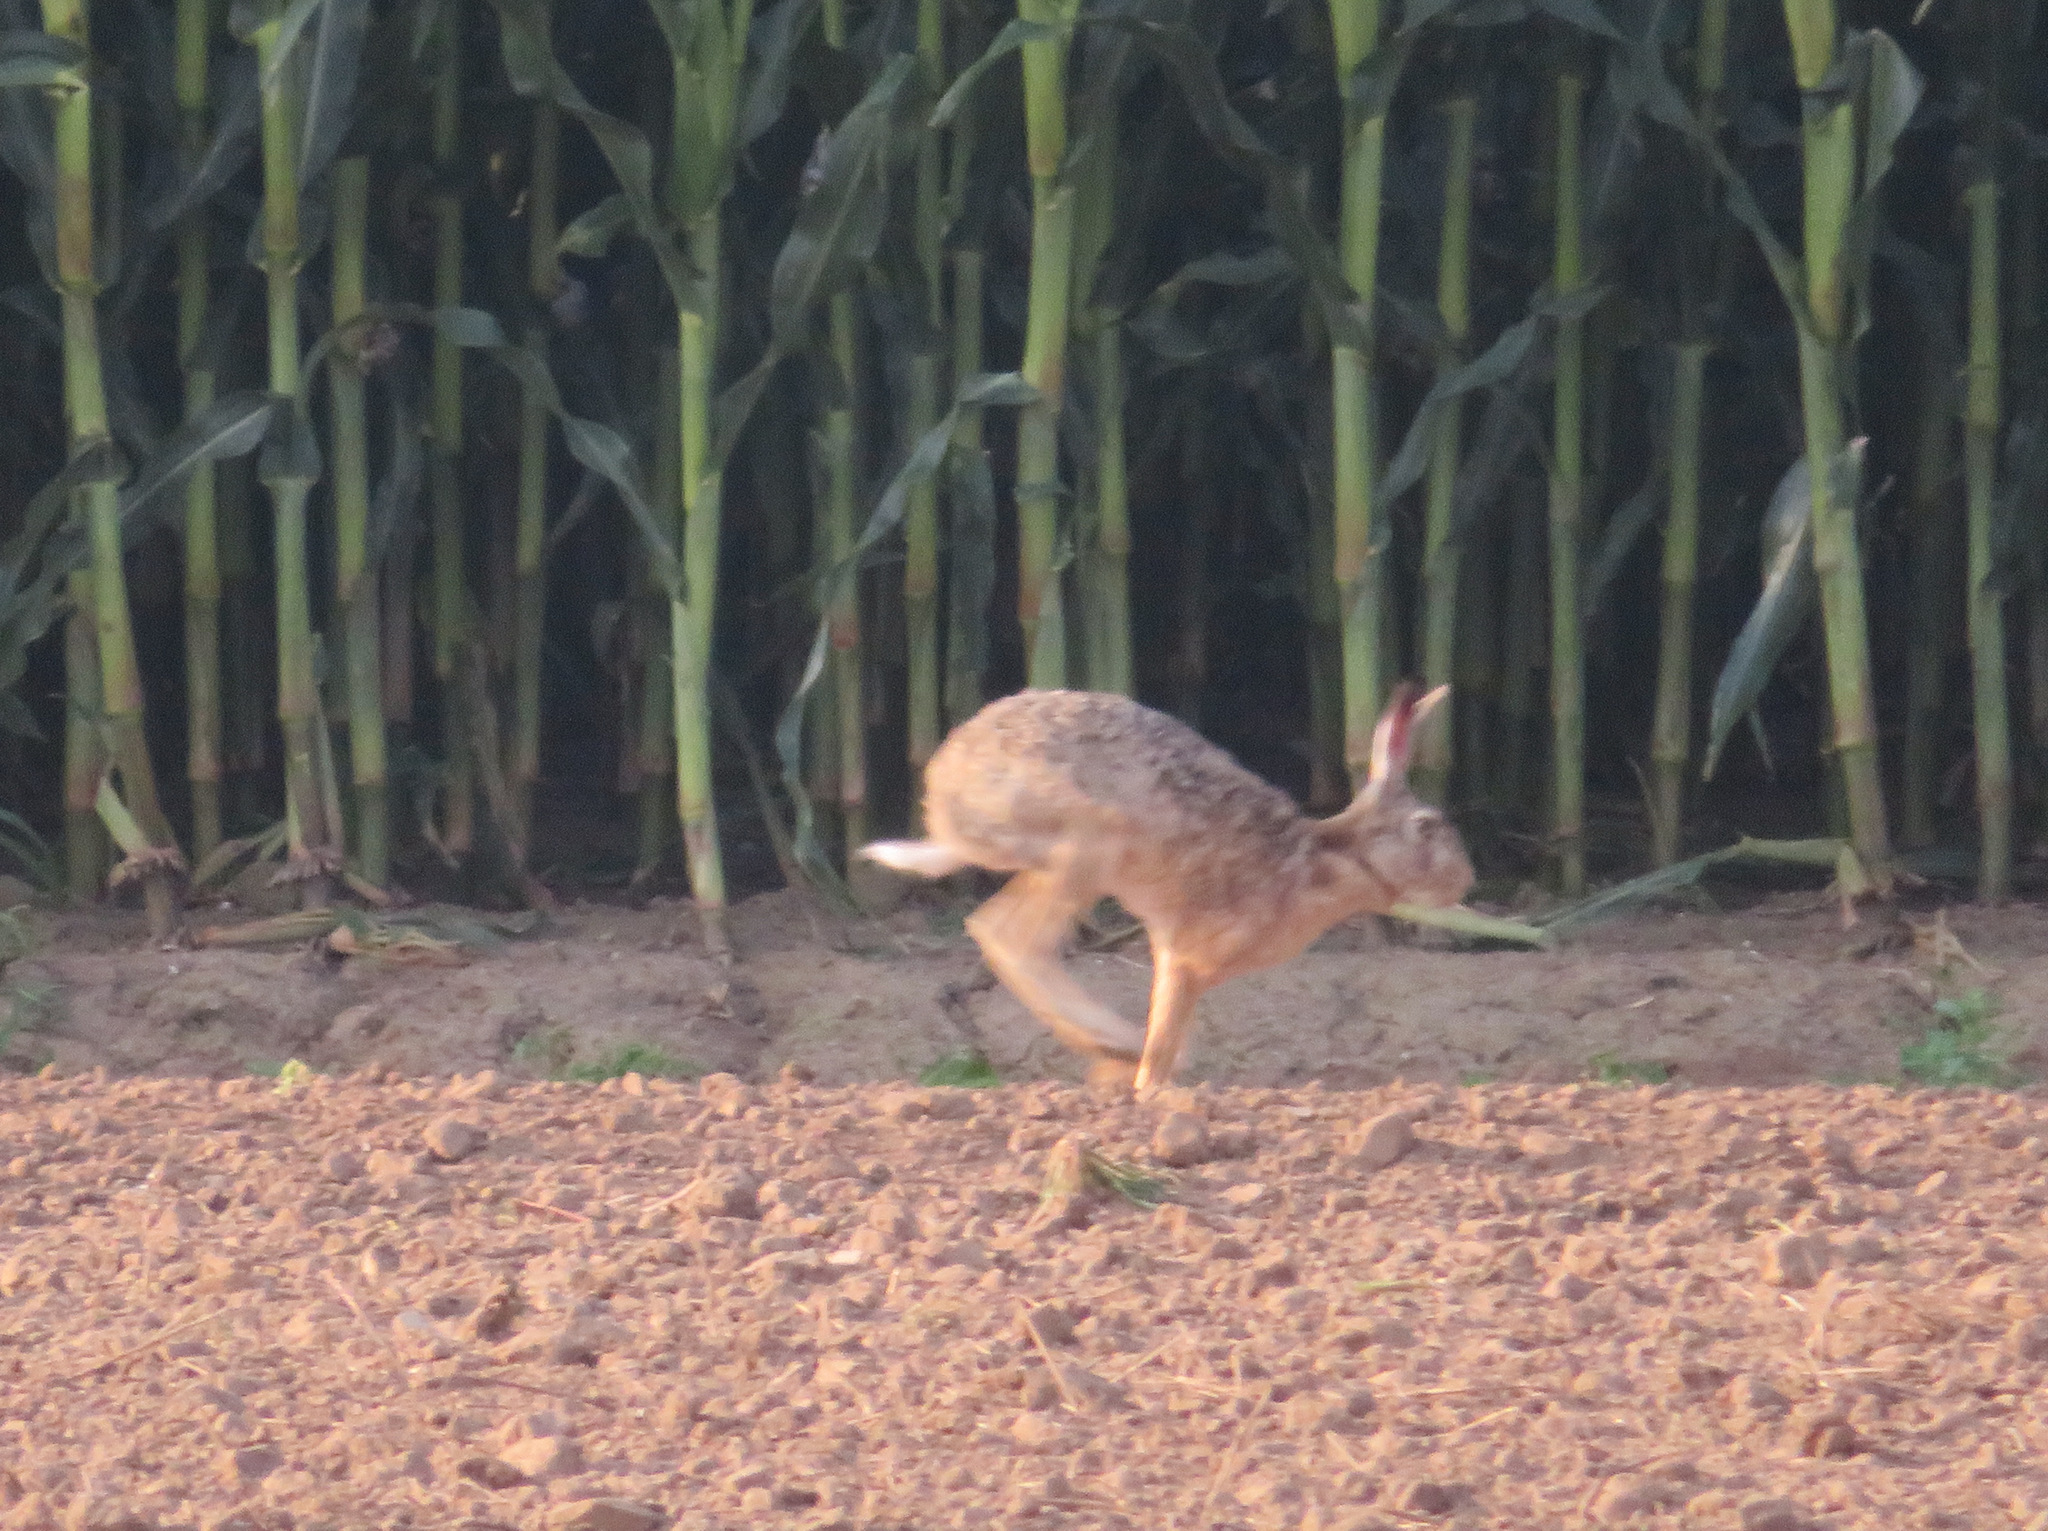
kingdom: Animalia
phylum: Chordata
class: Mammalia
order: Lagomorpha
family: Leporidae
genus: Lepus
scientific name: Lepus europaeus
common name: European hare
